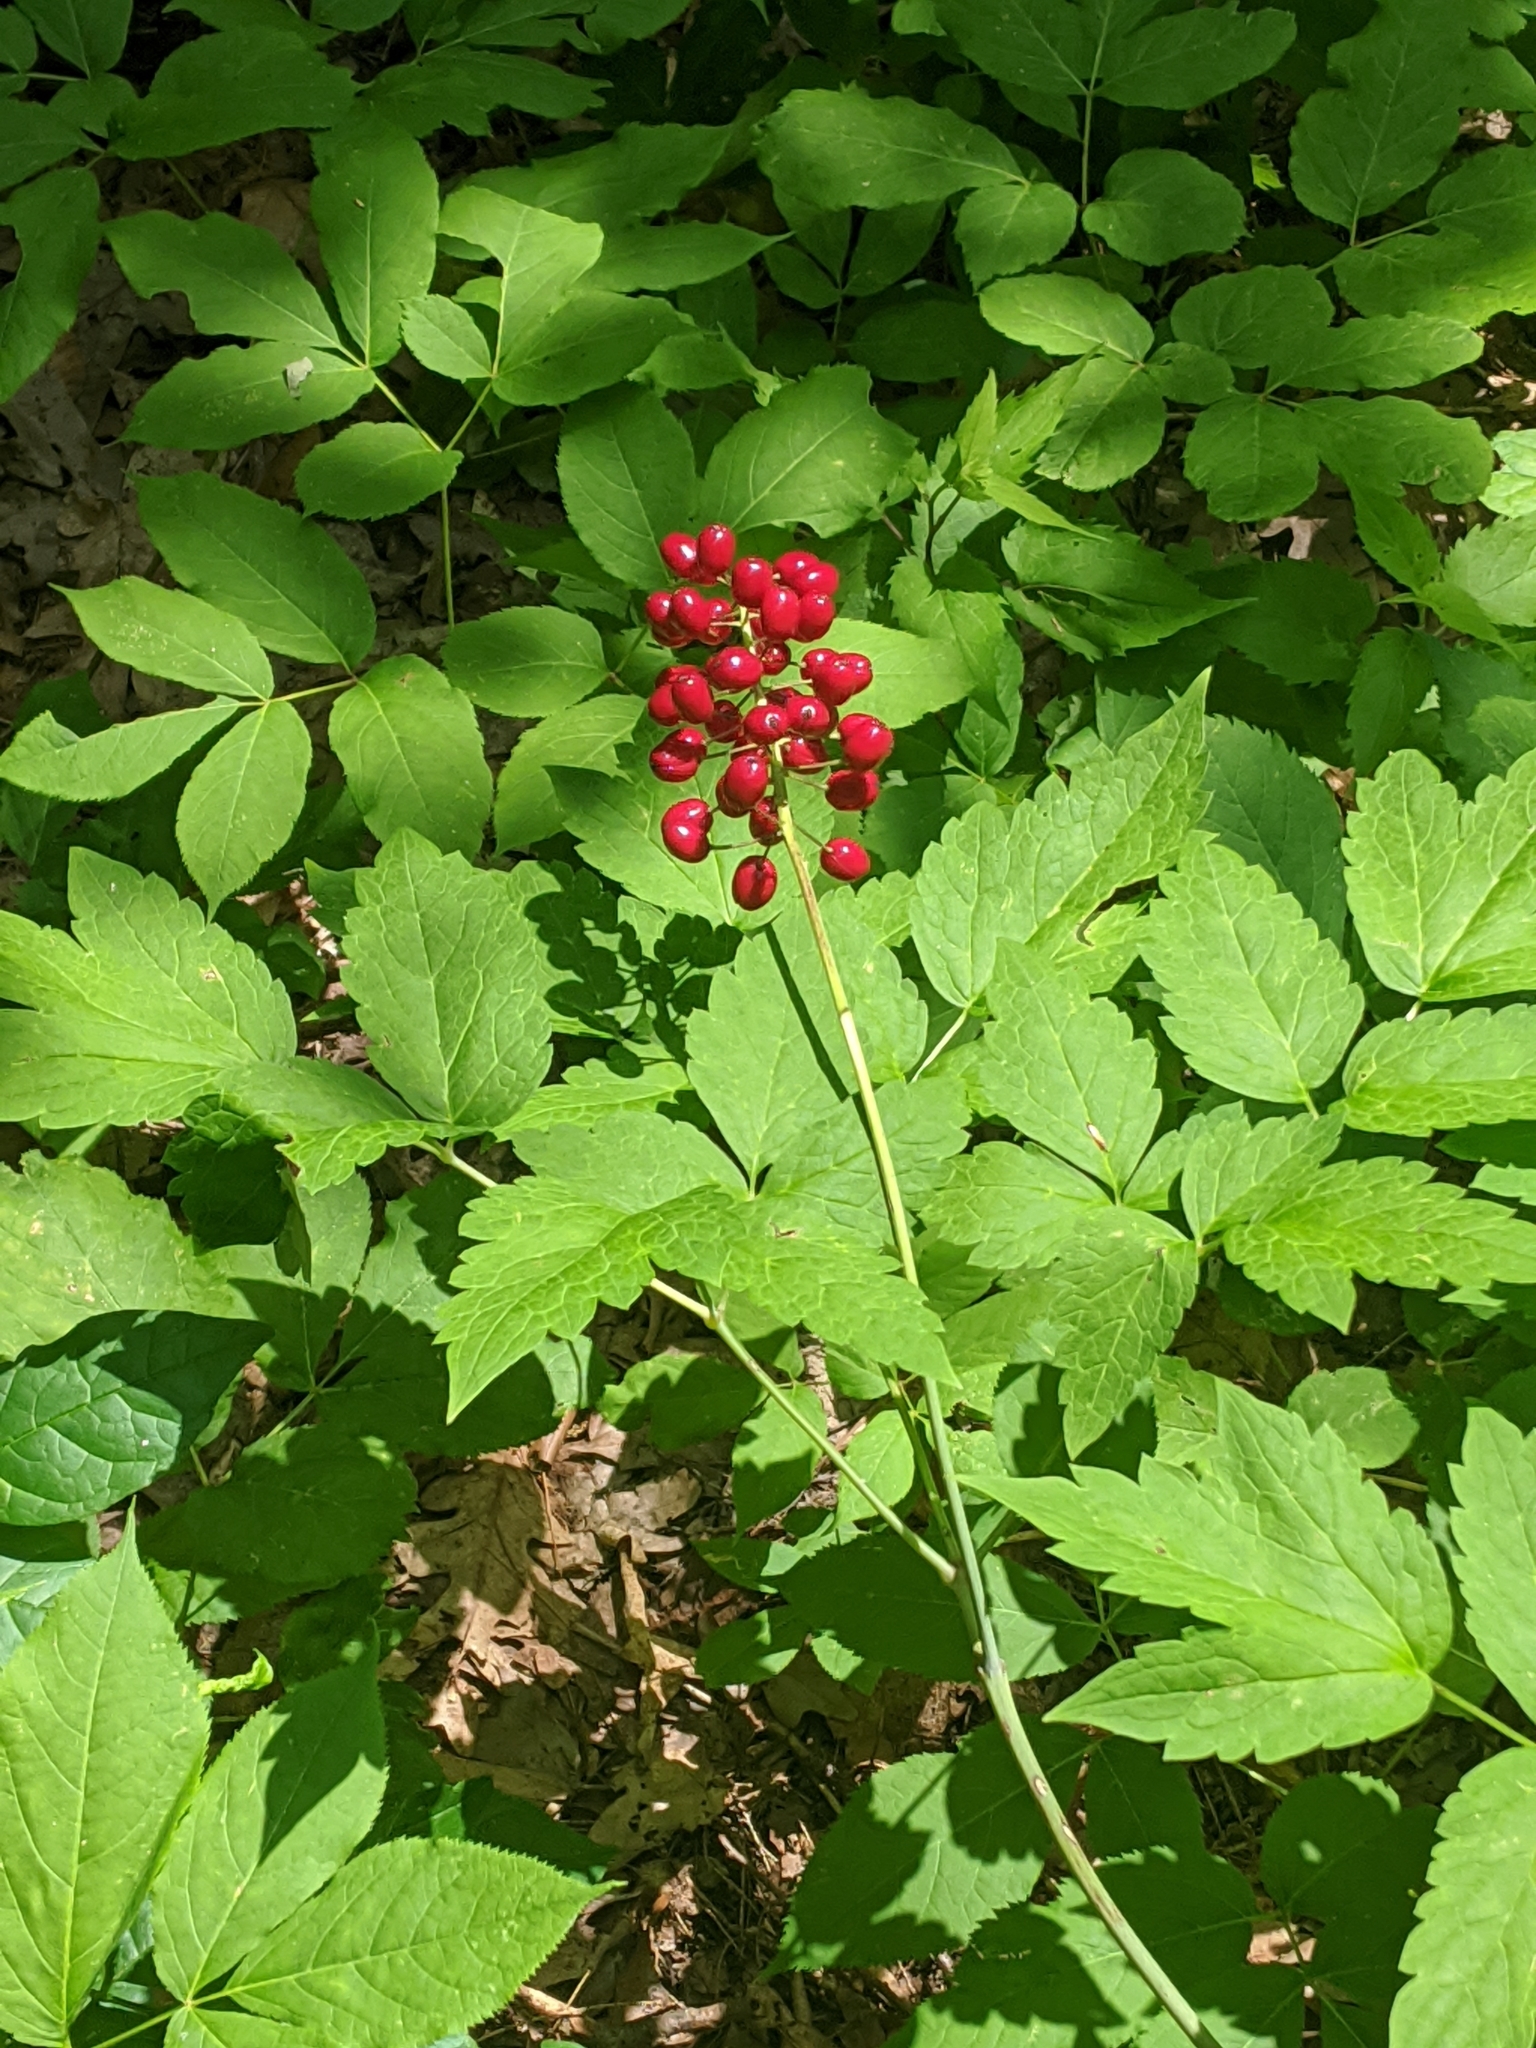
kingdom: Plantae
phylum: Tracheophyta
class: Magnoliopsida
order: Ranunculales
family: Ranunculaceae
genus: Actaea
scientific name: Actaea rubra
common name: Red baneberry
